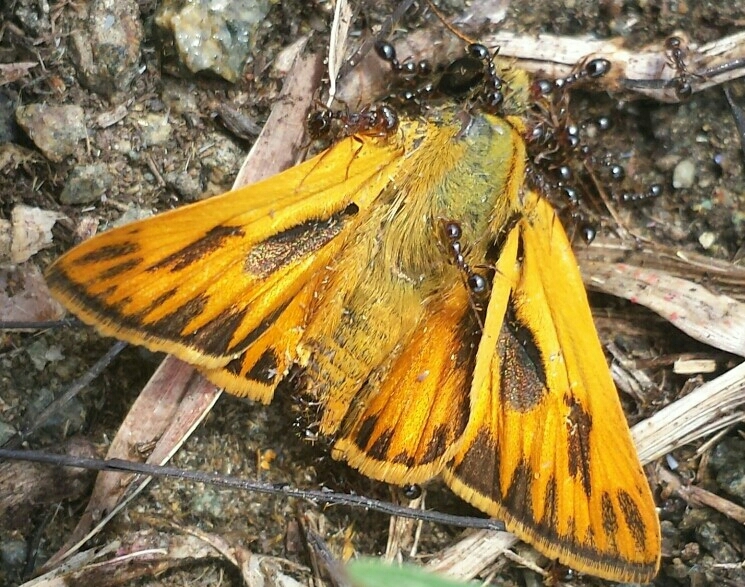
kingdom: Animalia
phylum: Arthropoda
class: Insecta
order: Lepidoptera
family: Hesperiidae
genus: Hylephila
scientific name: Hylephila phyleus
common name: Fiery skipper
